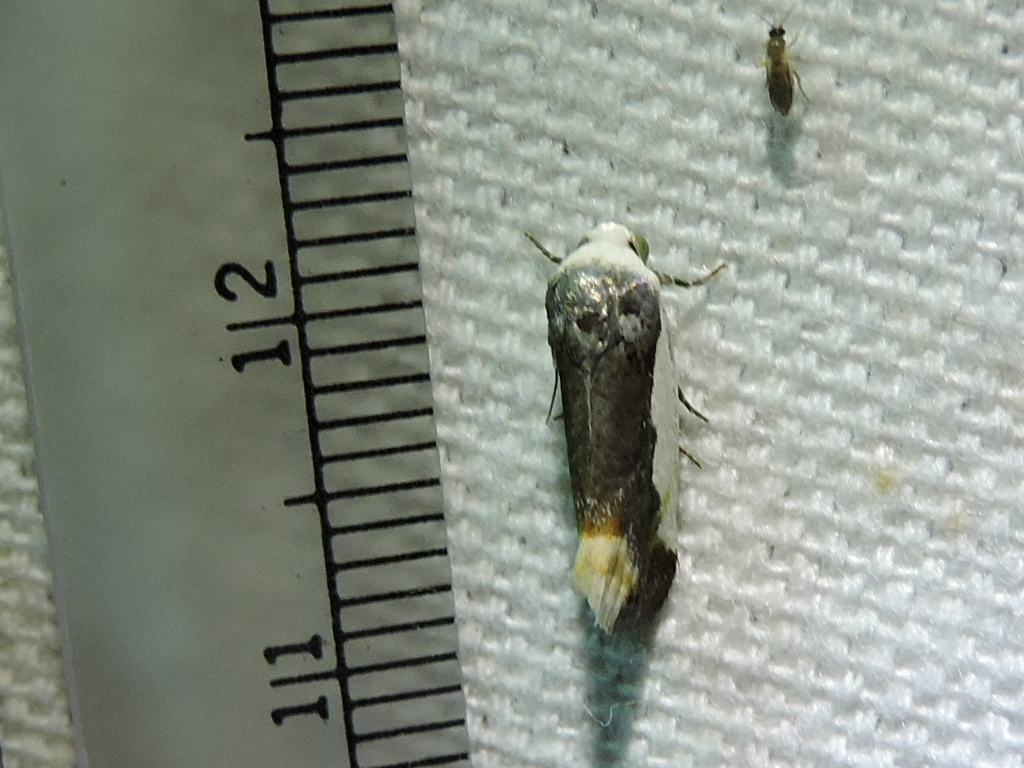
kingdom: Animalia
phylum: Arthropoda
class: Insecta
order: Lepidoptera
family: Noctuidae
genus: Acontia
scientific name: Acontia Tarache expolita
